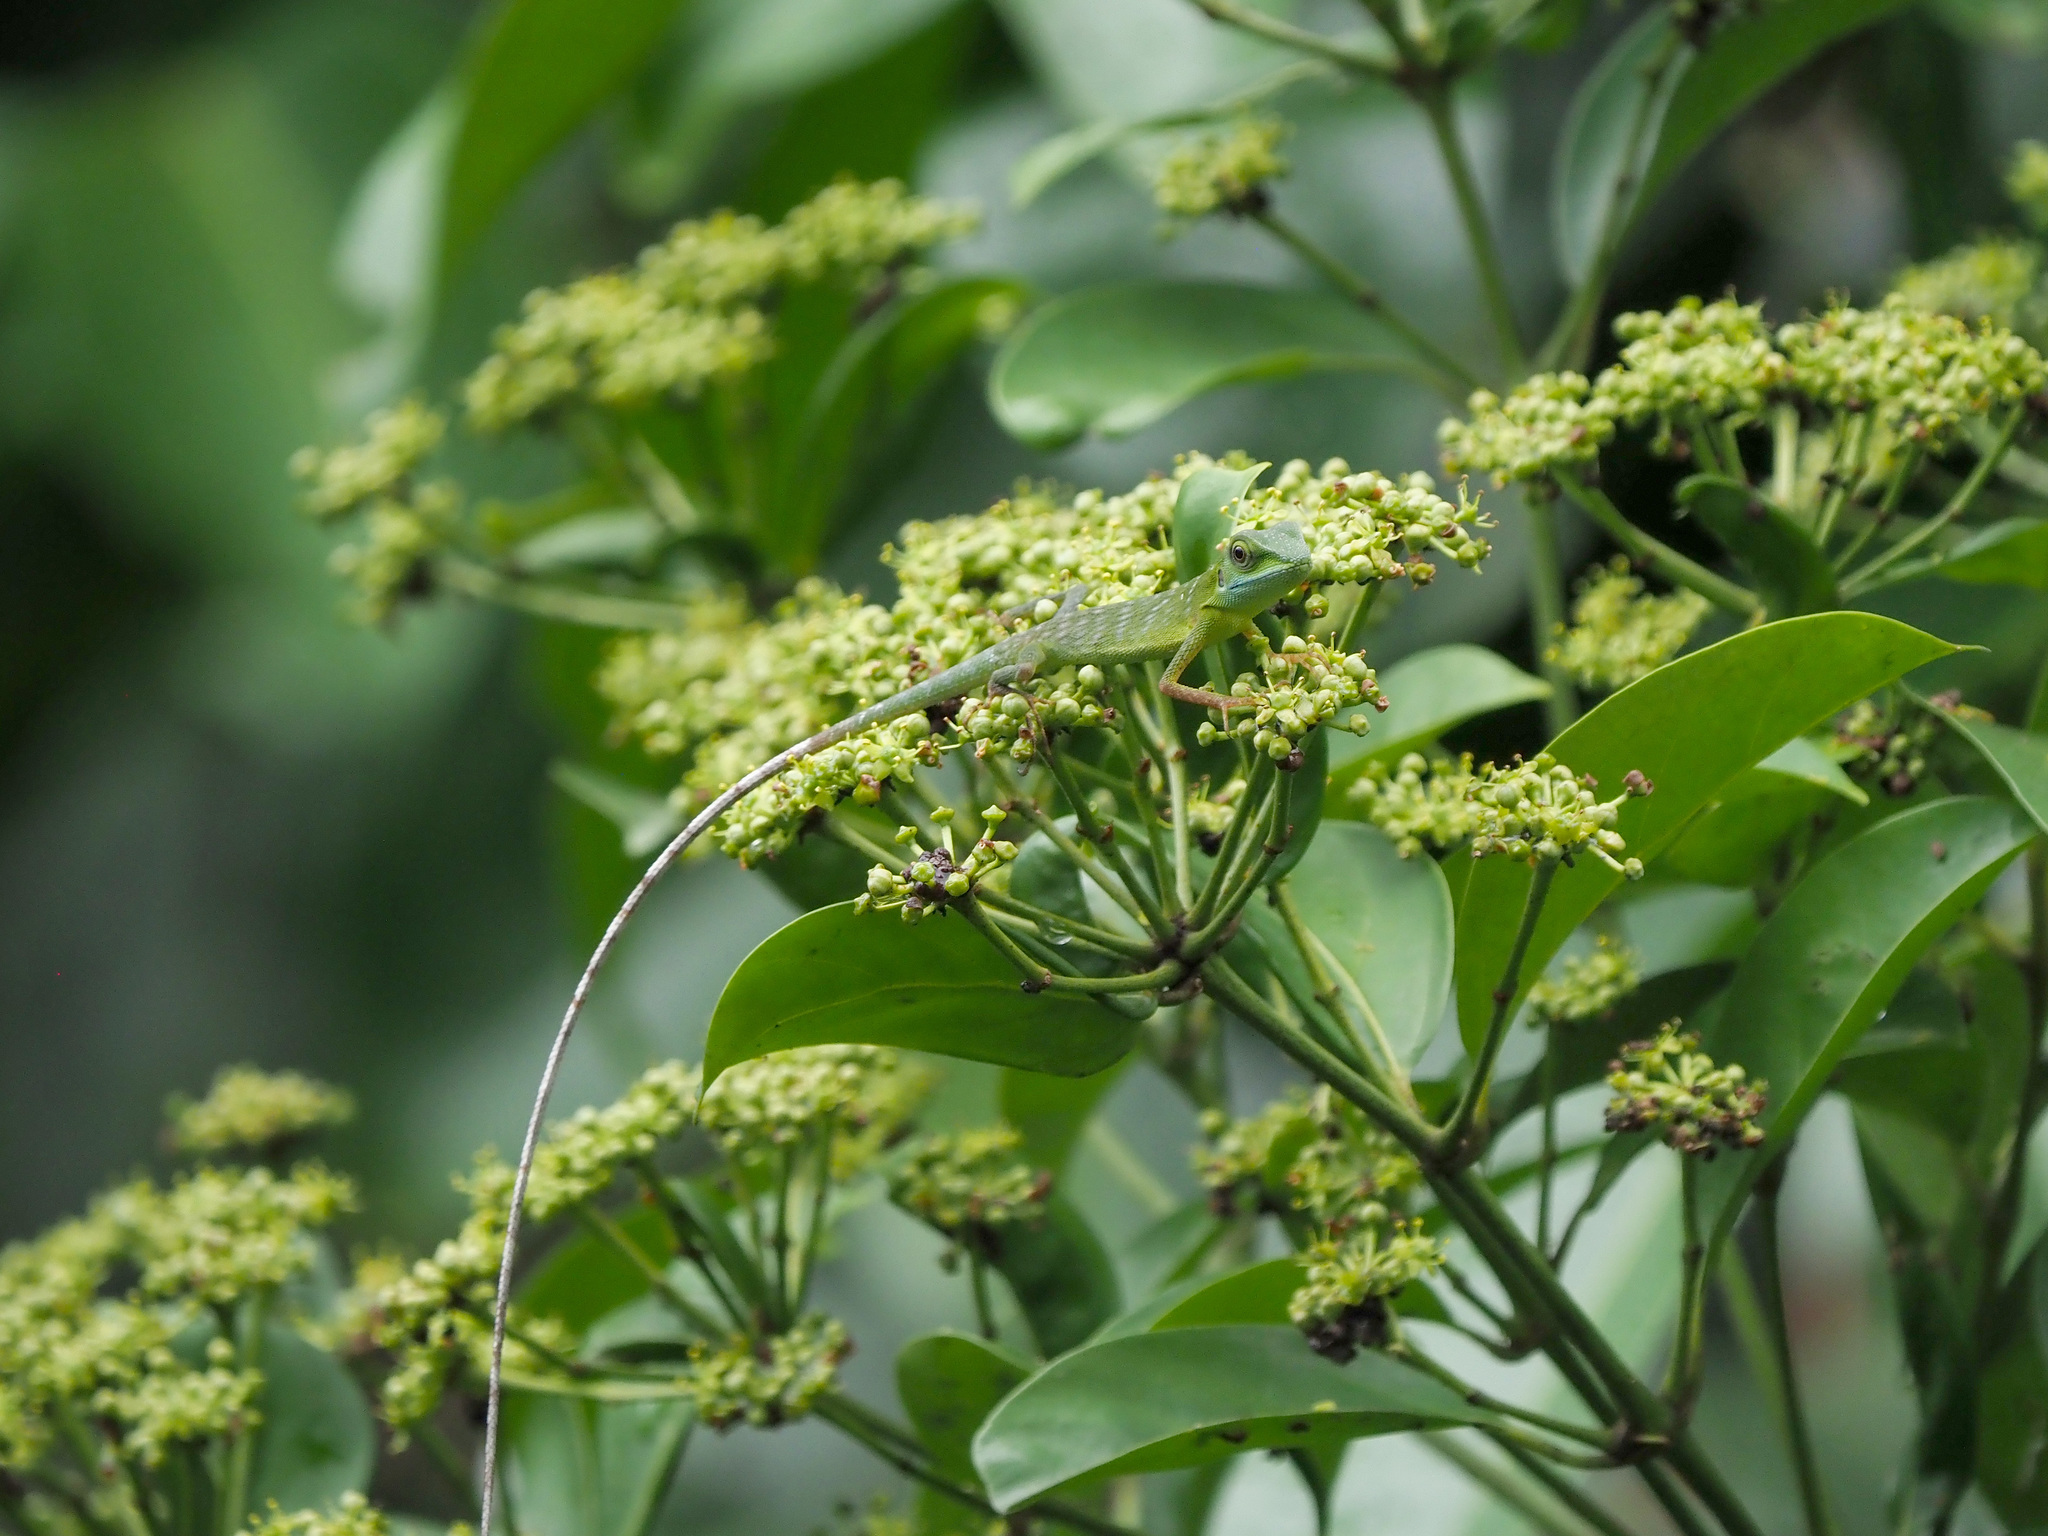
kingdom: Animalia
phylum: Chordata
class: Squamata
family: Agamidae
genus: Bronchocela
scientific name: Bronchocela cristatella
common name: Green crested lizard
